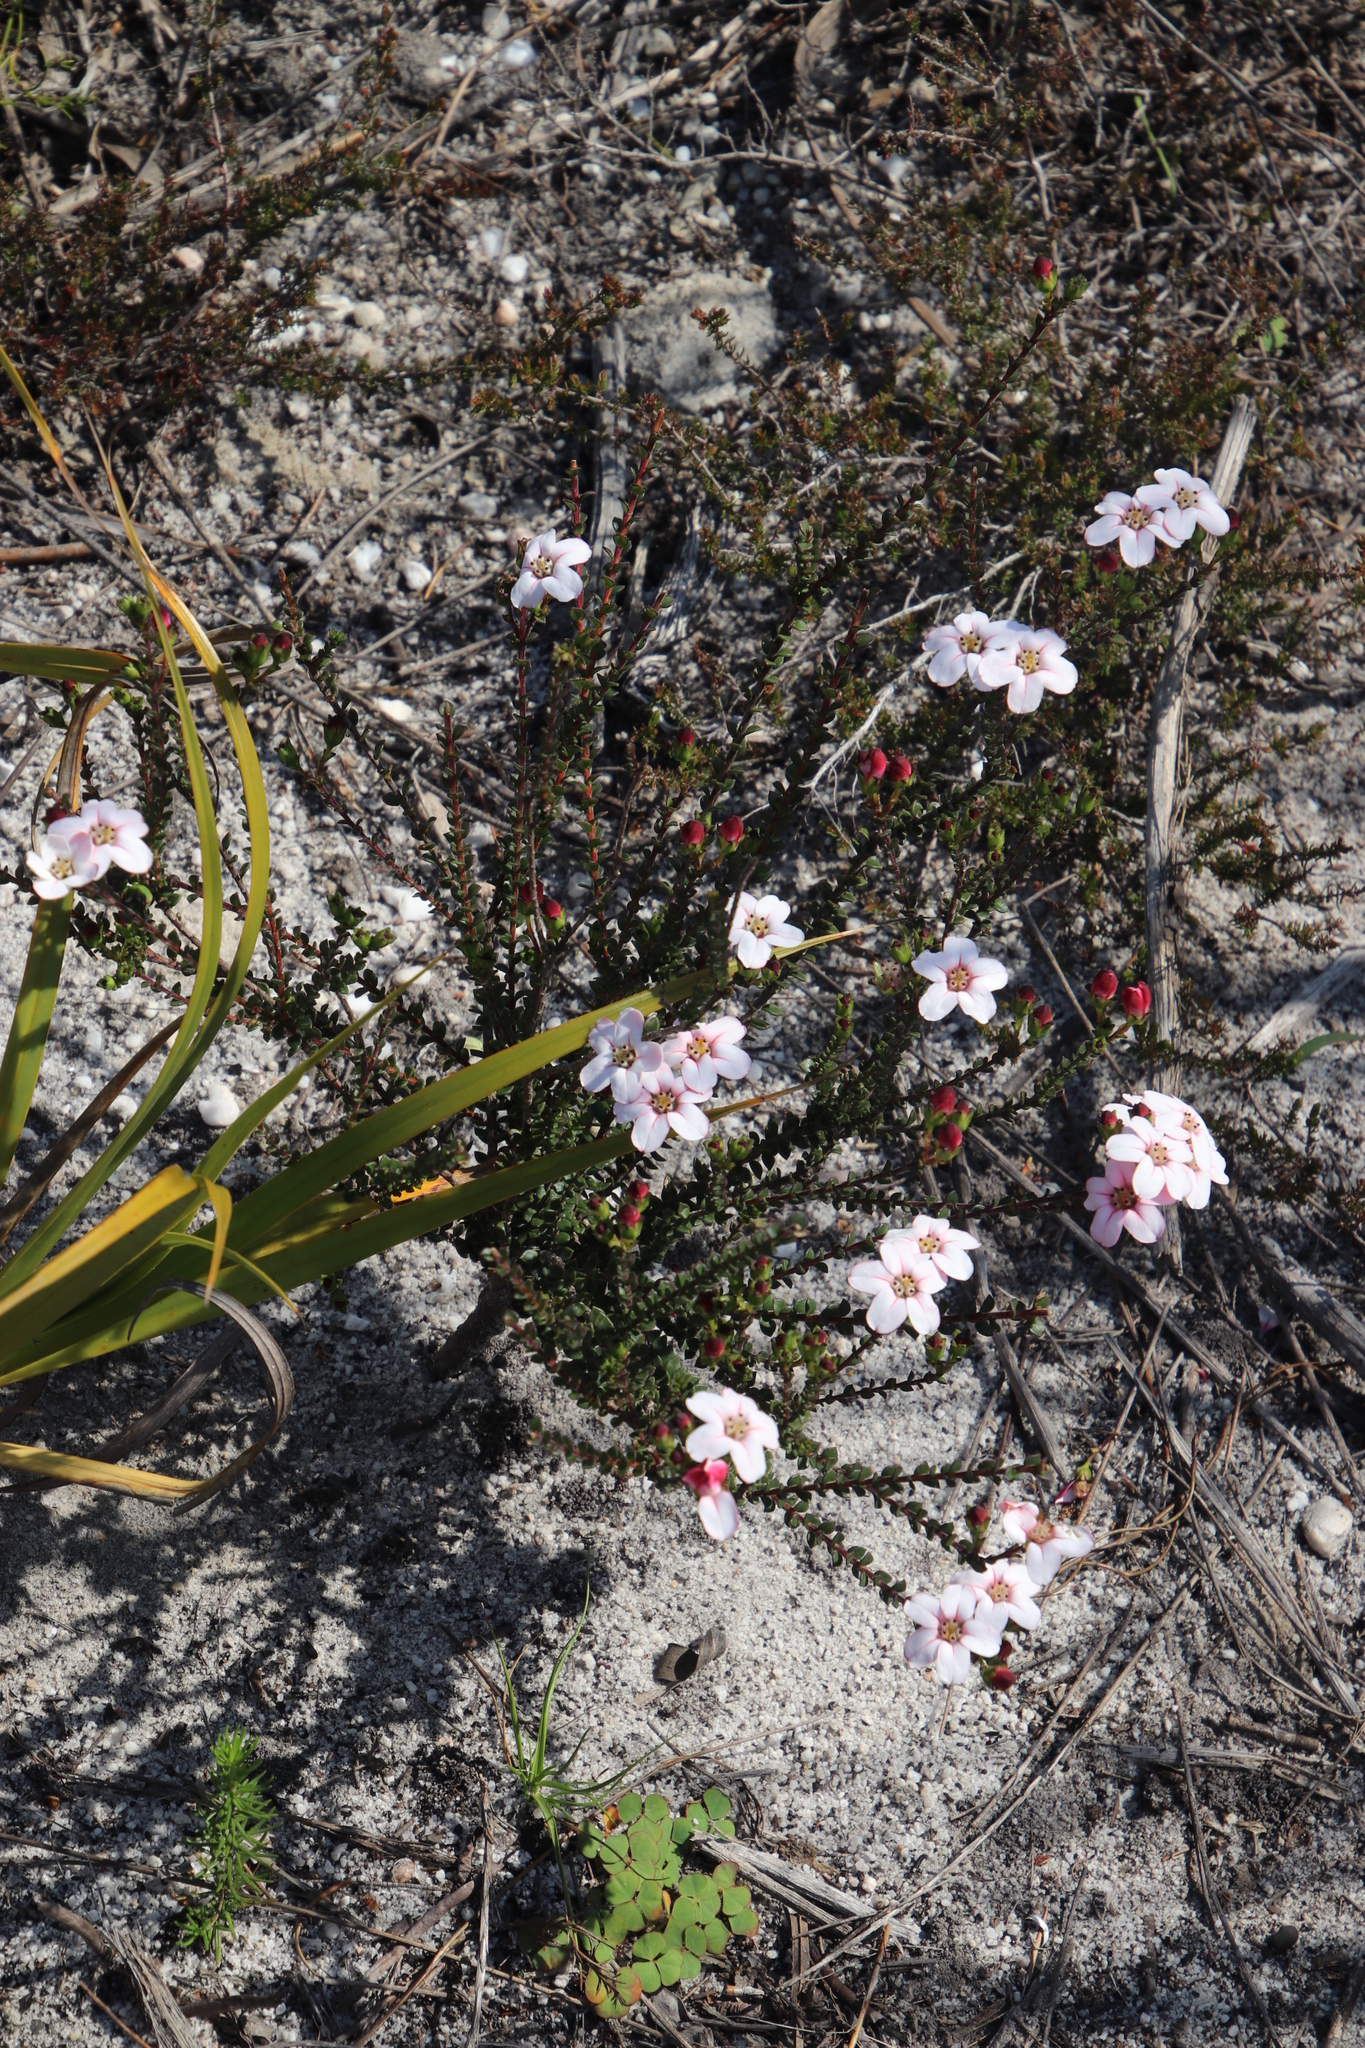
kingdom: Plantae
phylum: Tracheophyta
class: Magnoliopsida
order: Sapindales
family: Rutaceae
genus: Adenandra
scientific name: Adenandra mundiifolia
